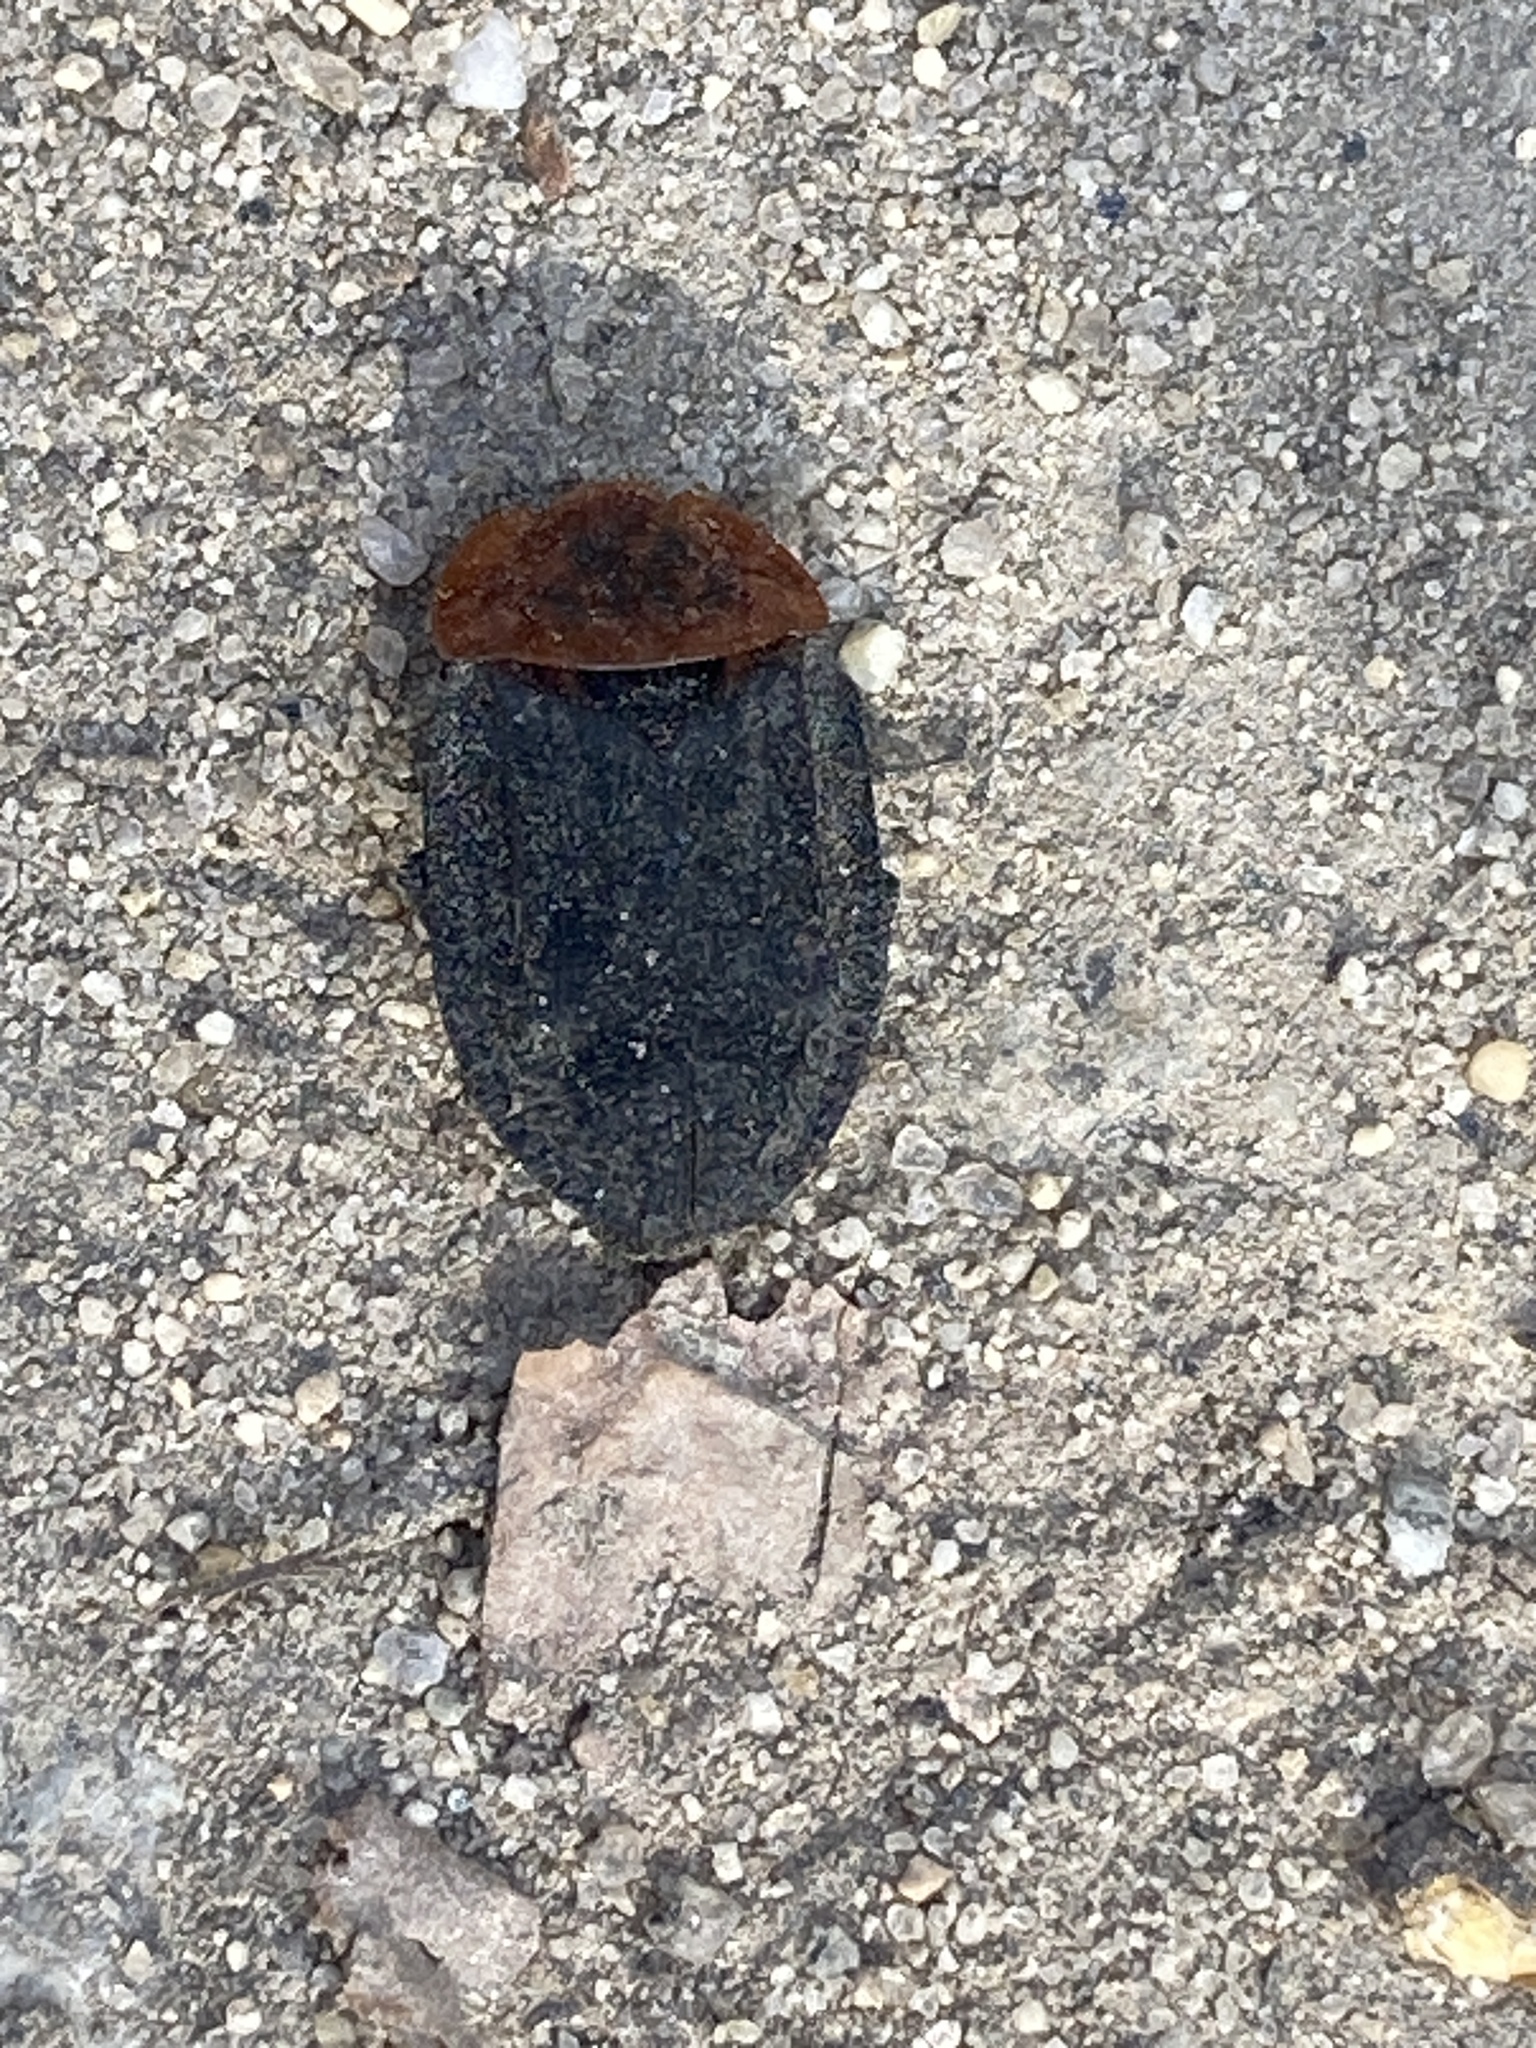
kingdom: Animalia
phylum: Arthropoda
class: Insecta
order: Coleoptera
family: Staphylinidae
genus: Oiceoptoma
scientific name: Oiceoptoma thoracicum
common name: Red-breasted carrion beetle
